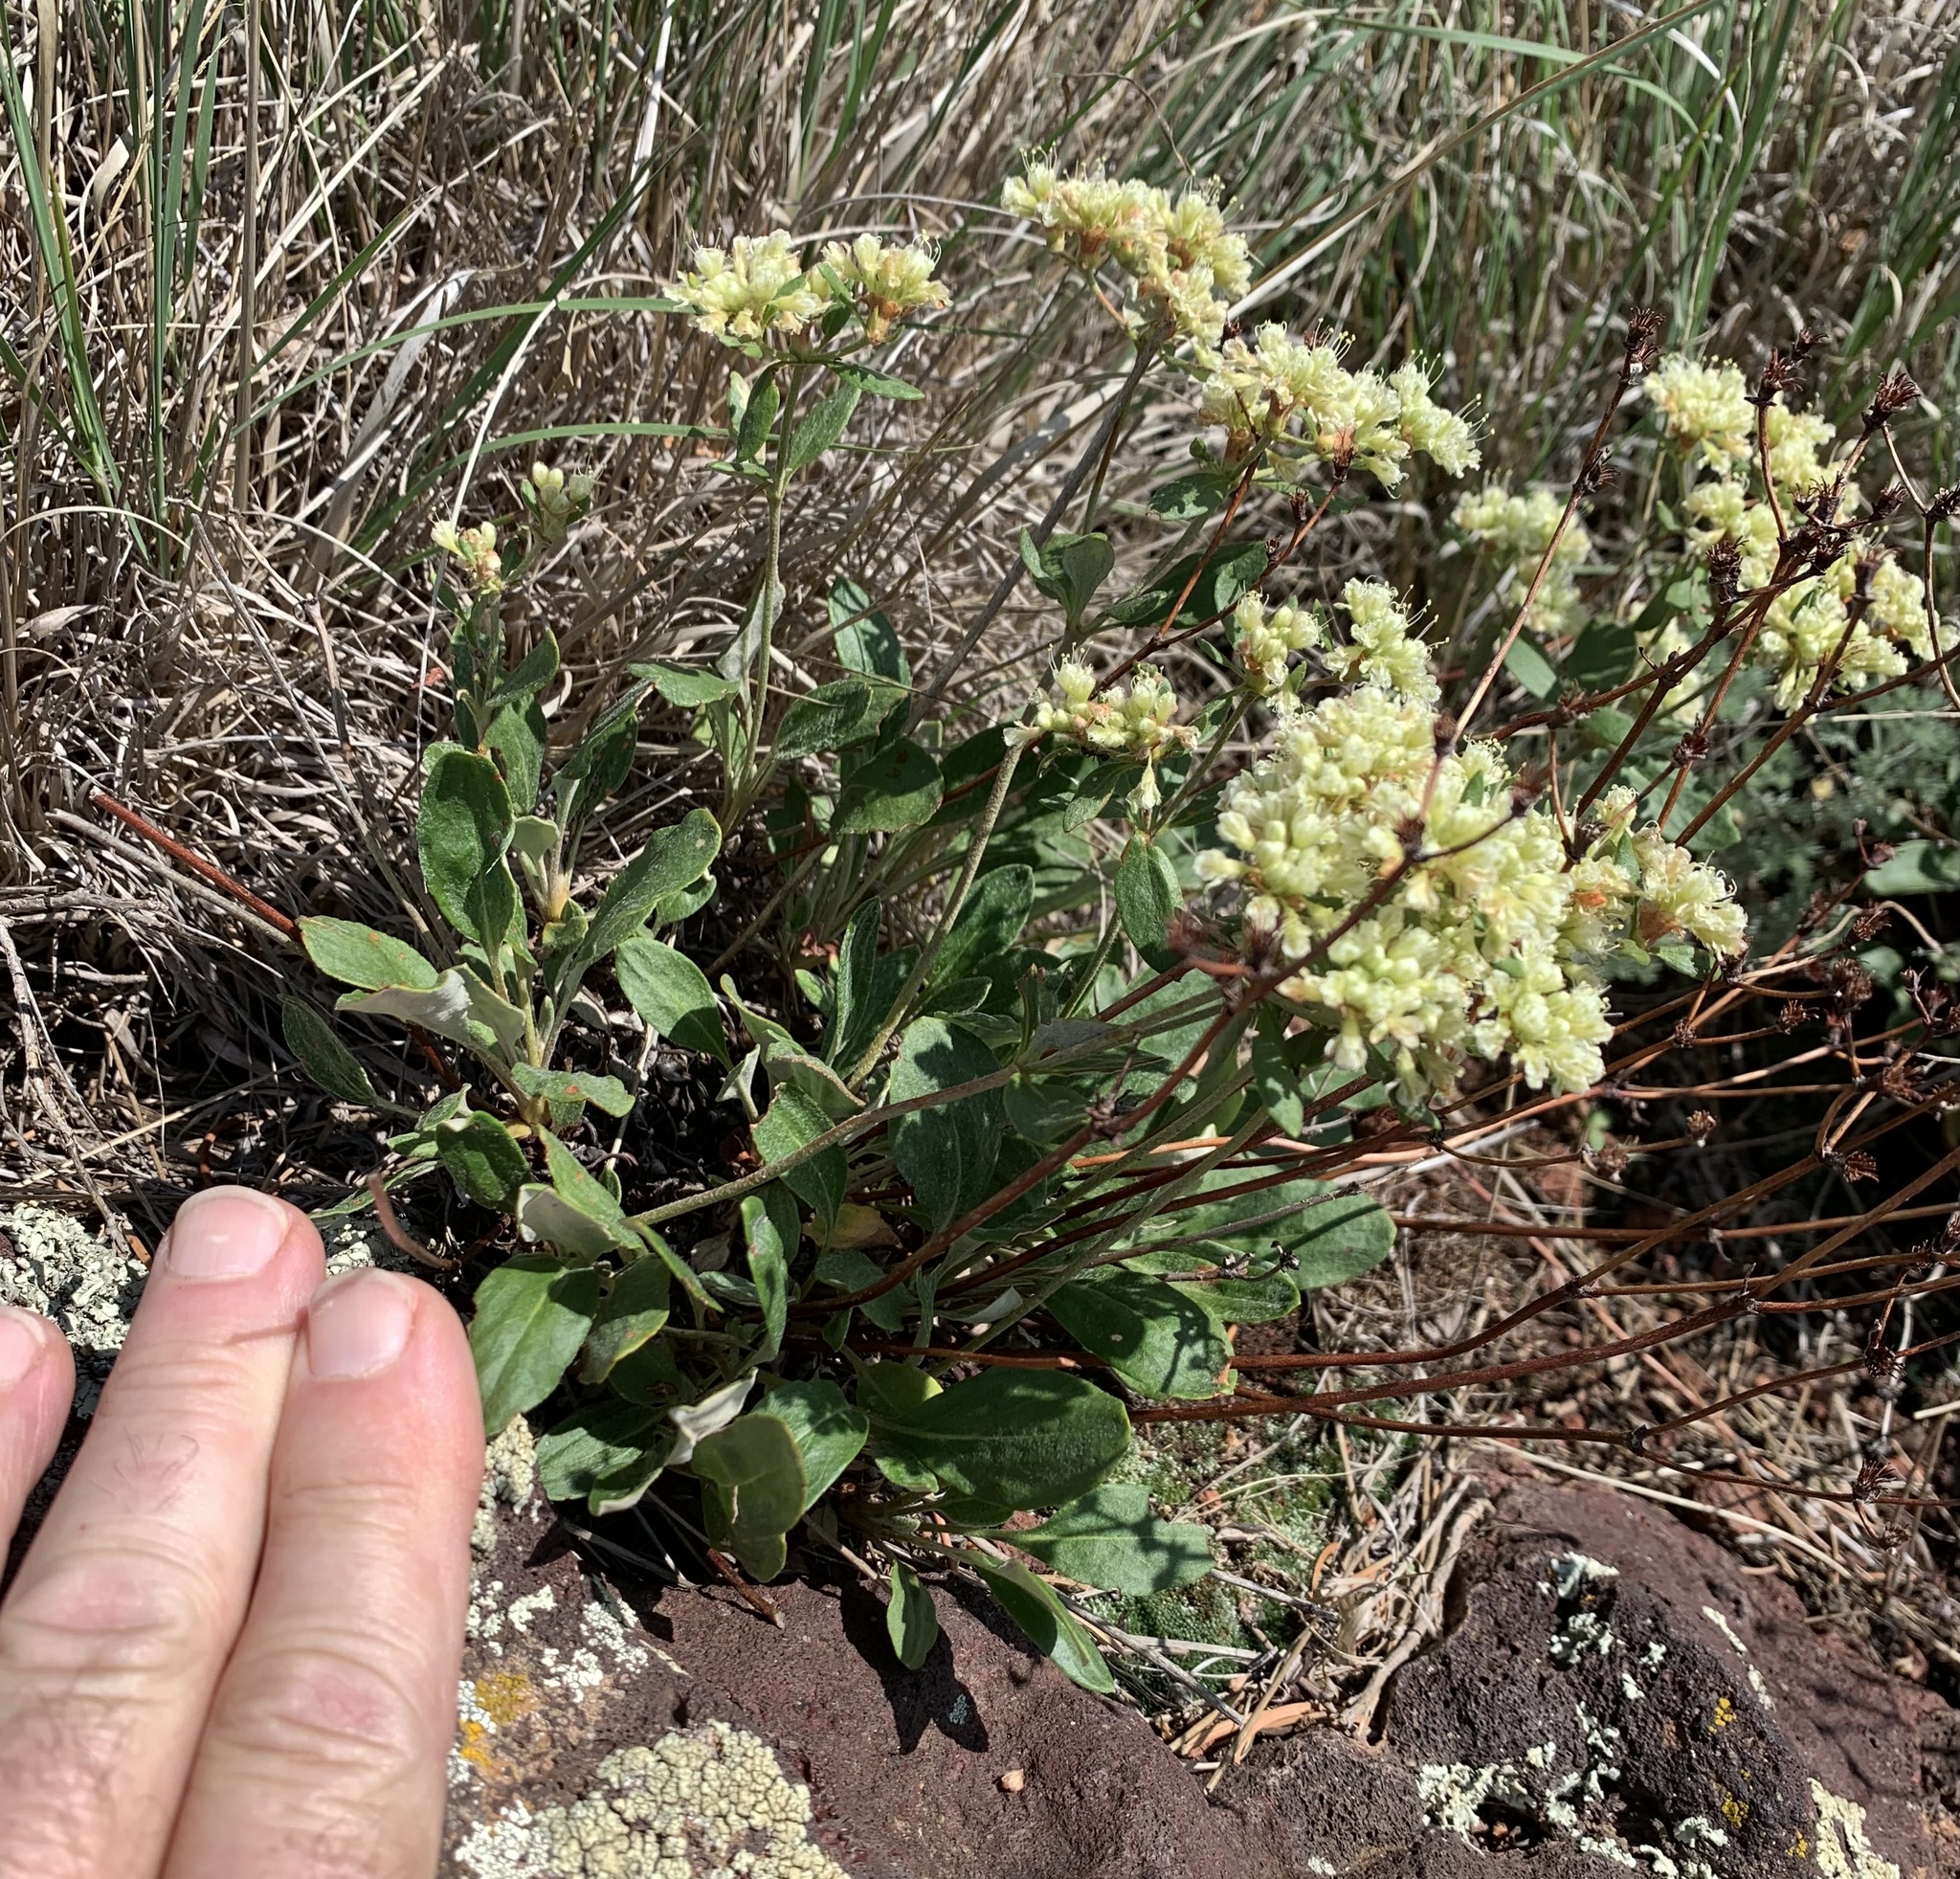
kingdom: Plantae
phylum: Tracheophyta
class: Magnoliopsida
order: Caryophyllales
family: Polygonaceae
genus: Eriogonum
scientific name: Eriogonum jamesii
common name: Antelope-sage
